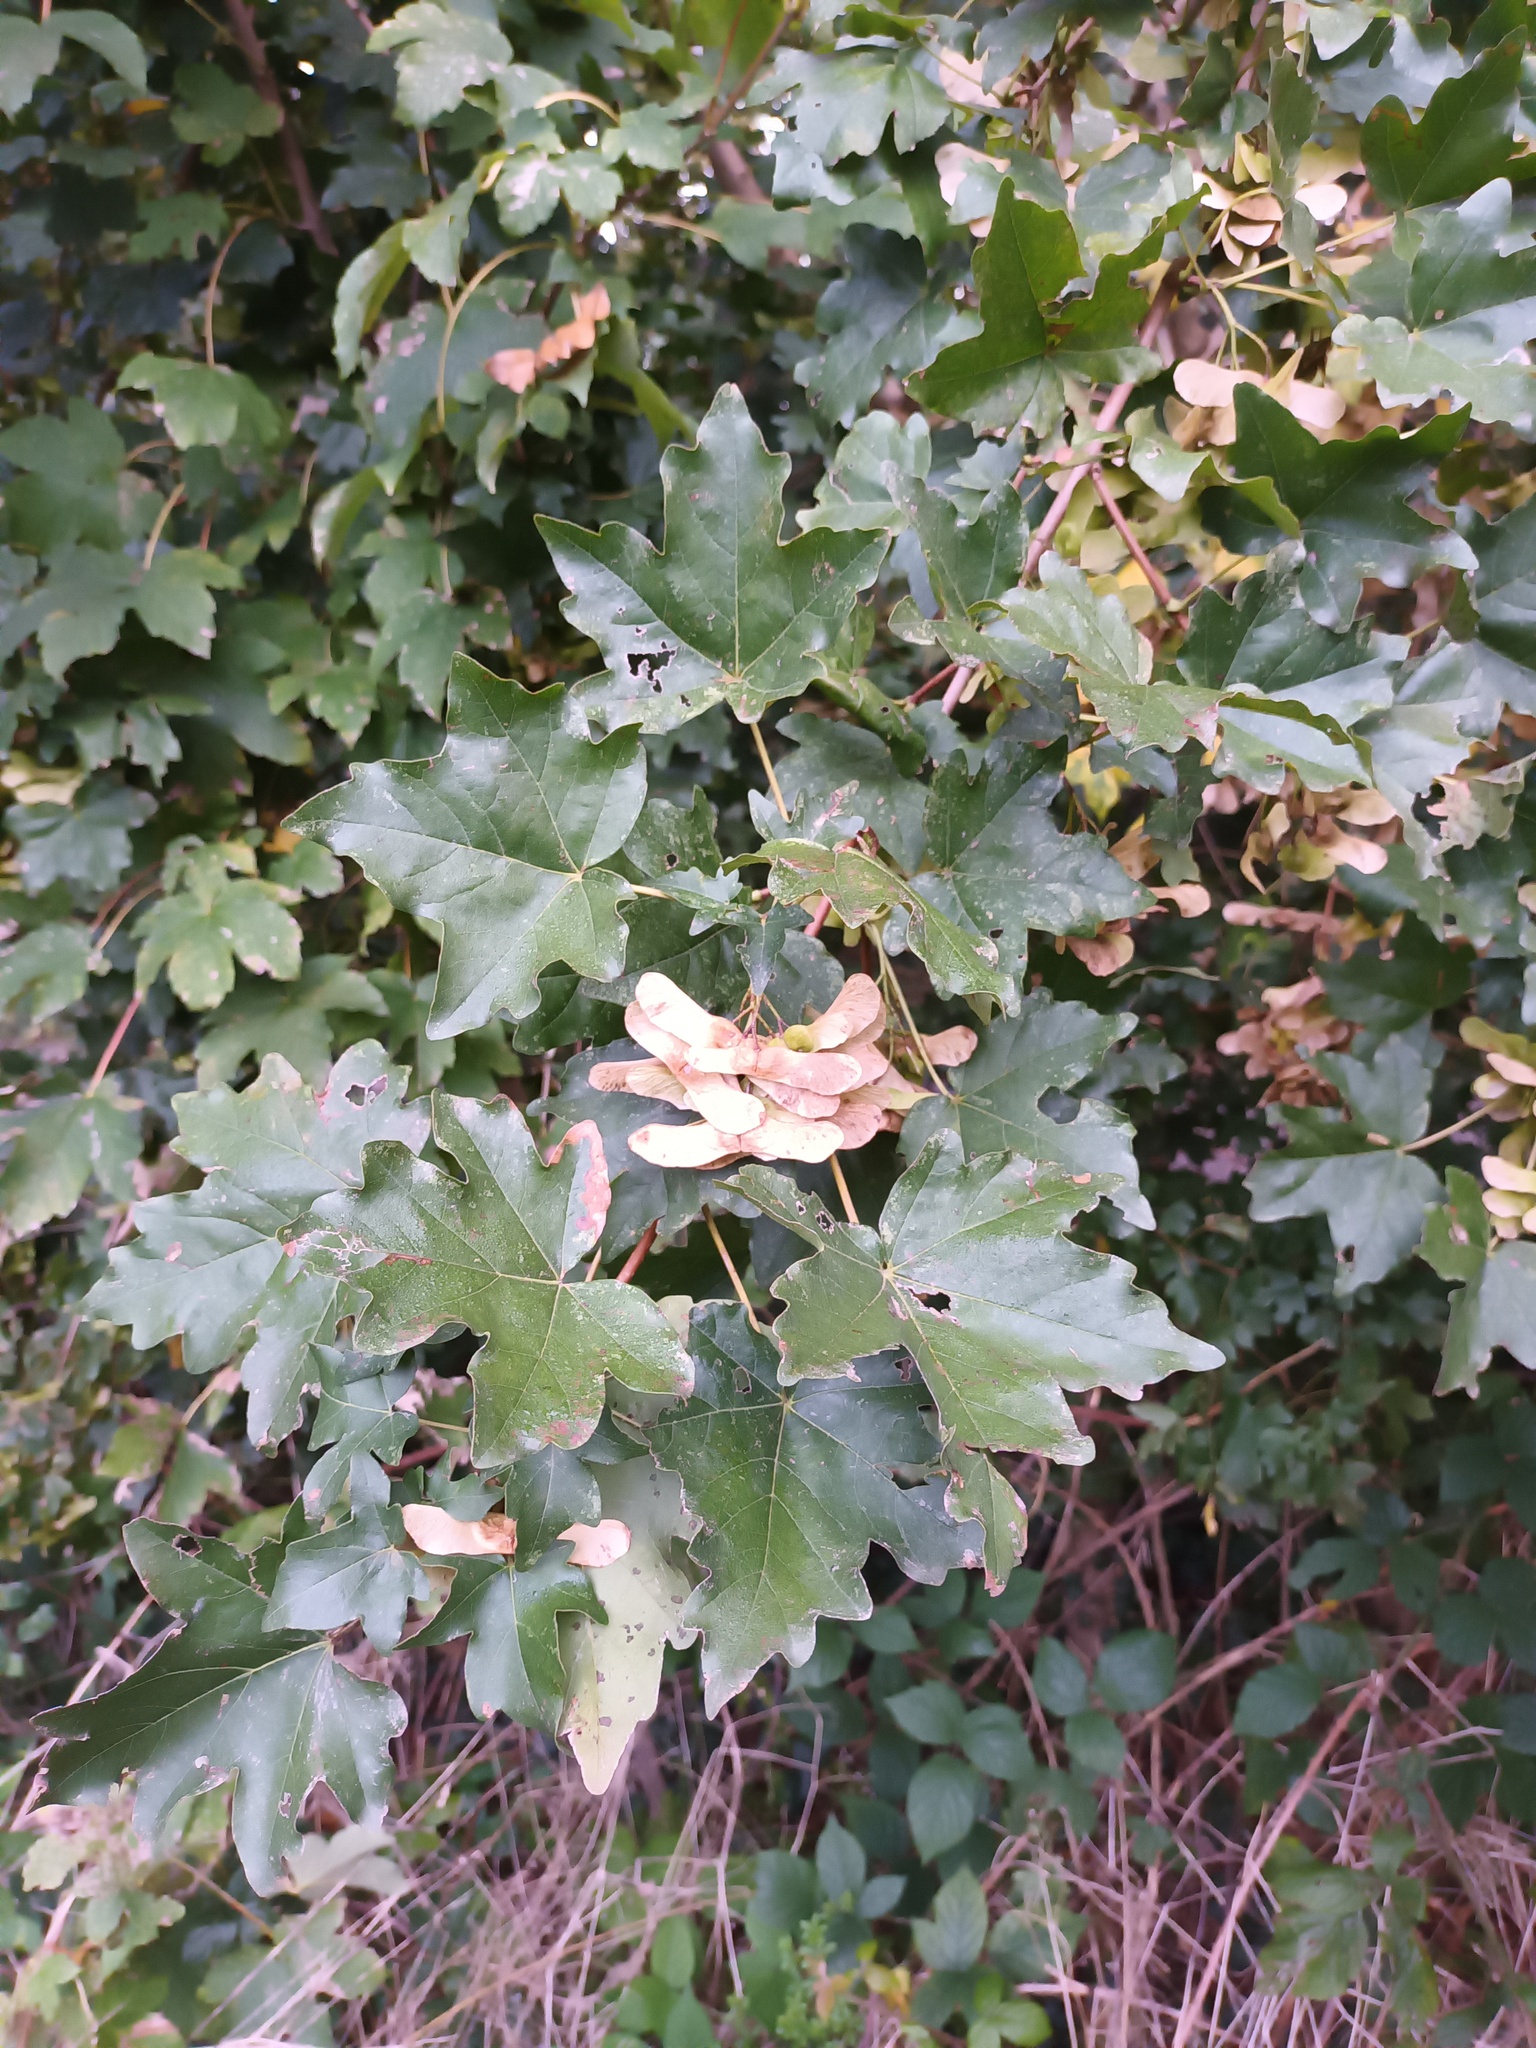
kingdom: Plantae
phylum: Tracheophyta
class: Magnoliopsida
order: Sapindales
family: Sapindaceae
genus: Acer
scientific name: Acer campestre
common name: Field maple
